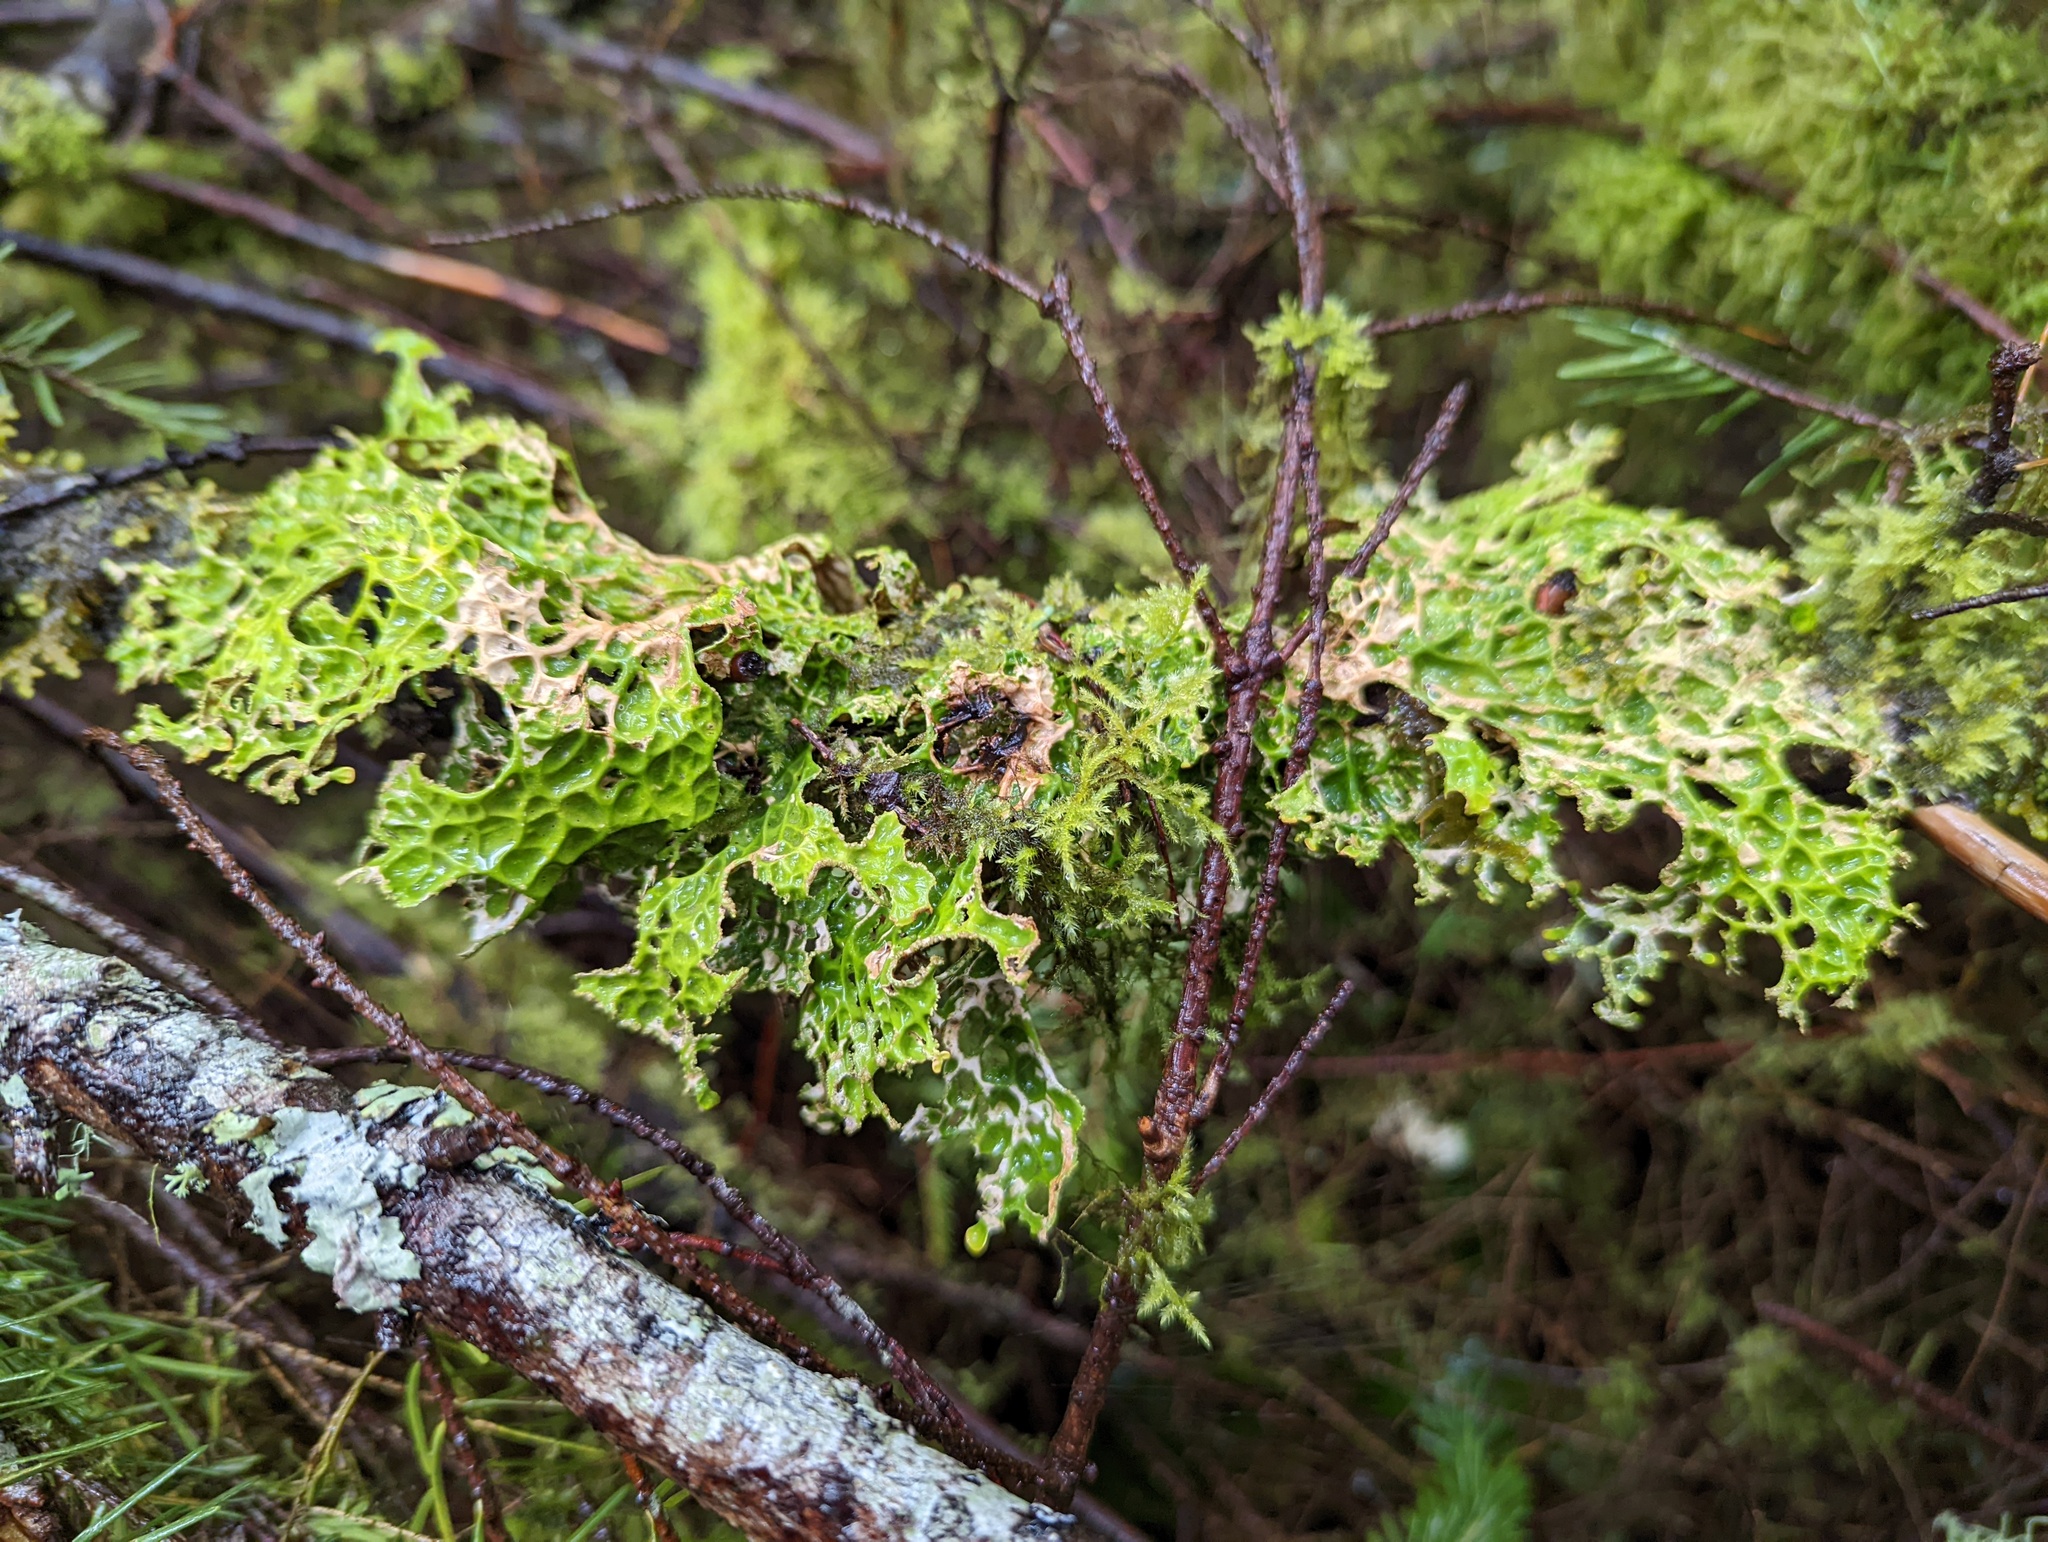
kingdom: Fungi
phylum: Ascomycota
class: Lecanoromycetes
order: Peltigerales
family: Lobariaceae
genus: Lobaria
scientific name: Lobaria pulmonaria
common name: Lungwort
